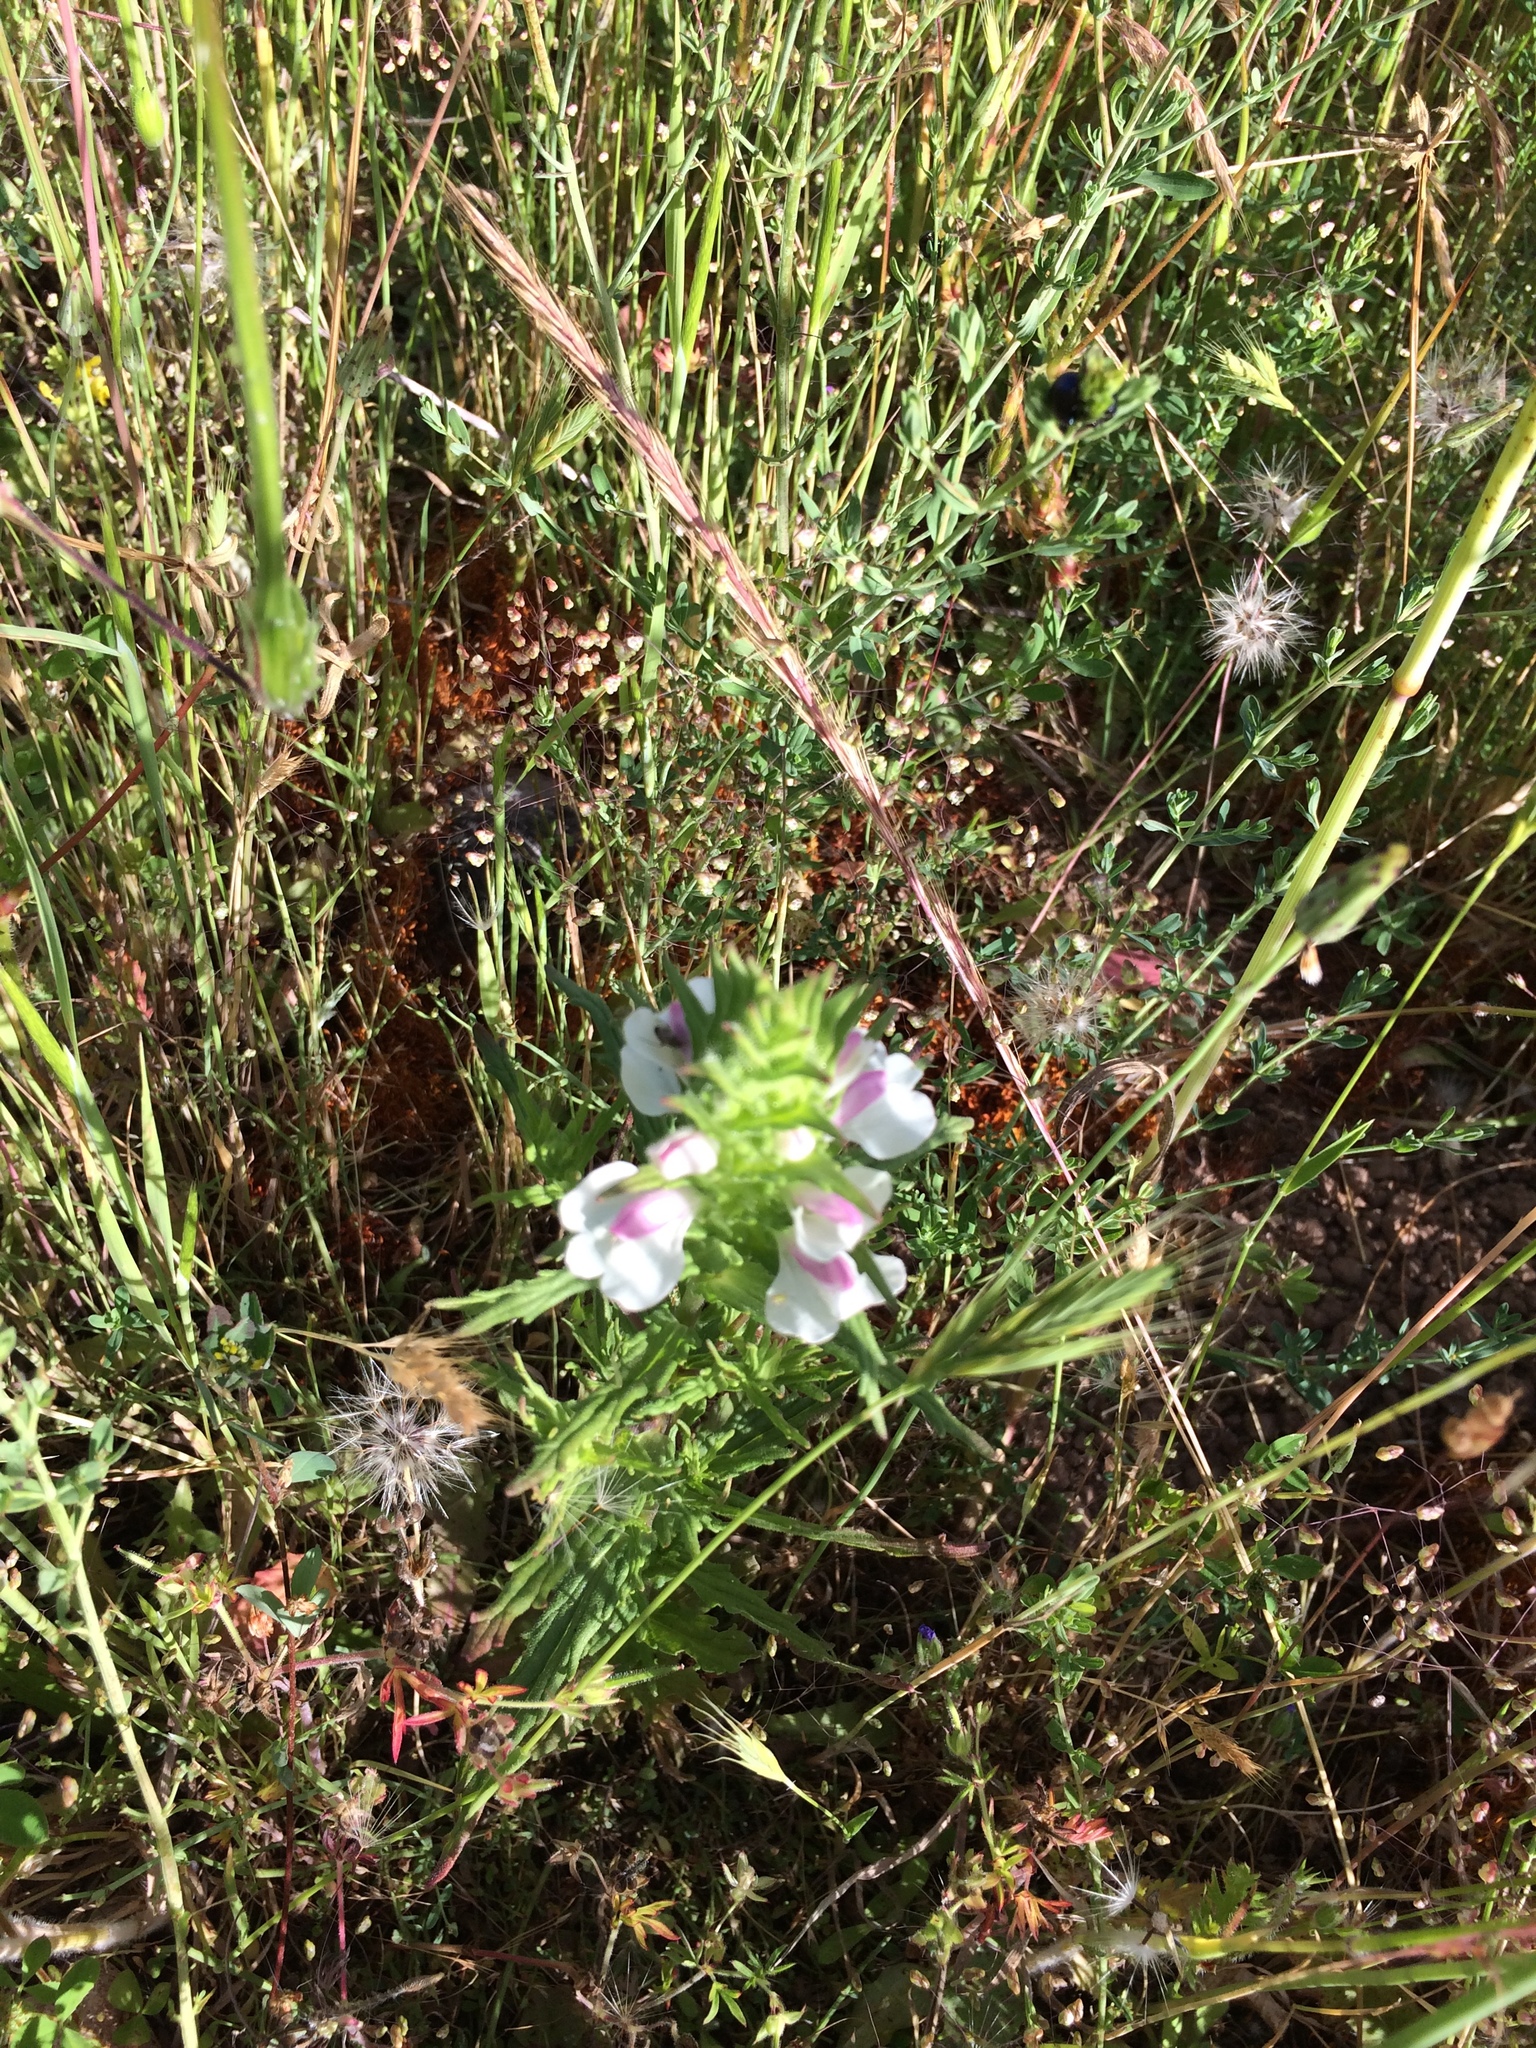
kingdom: Plantae
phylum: Tracheophyta
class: Magnoliopsida
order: Lamiales
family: Orobanchaceae
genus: Bellardia
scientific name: Bellardia trixago
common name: Mediterranean lineseed
